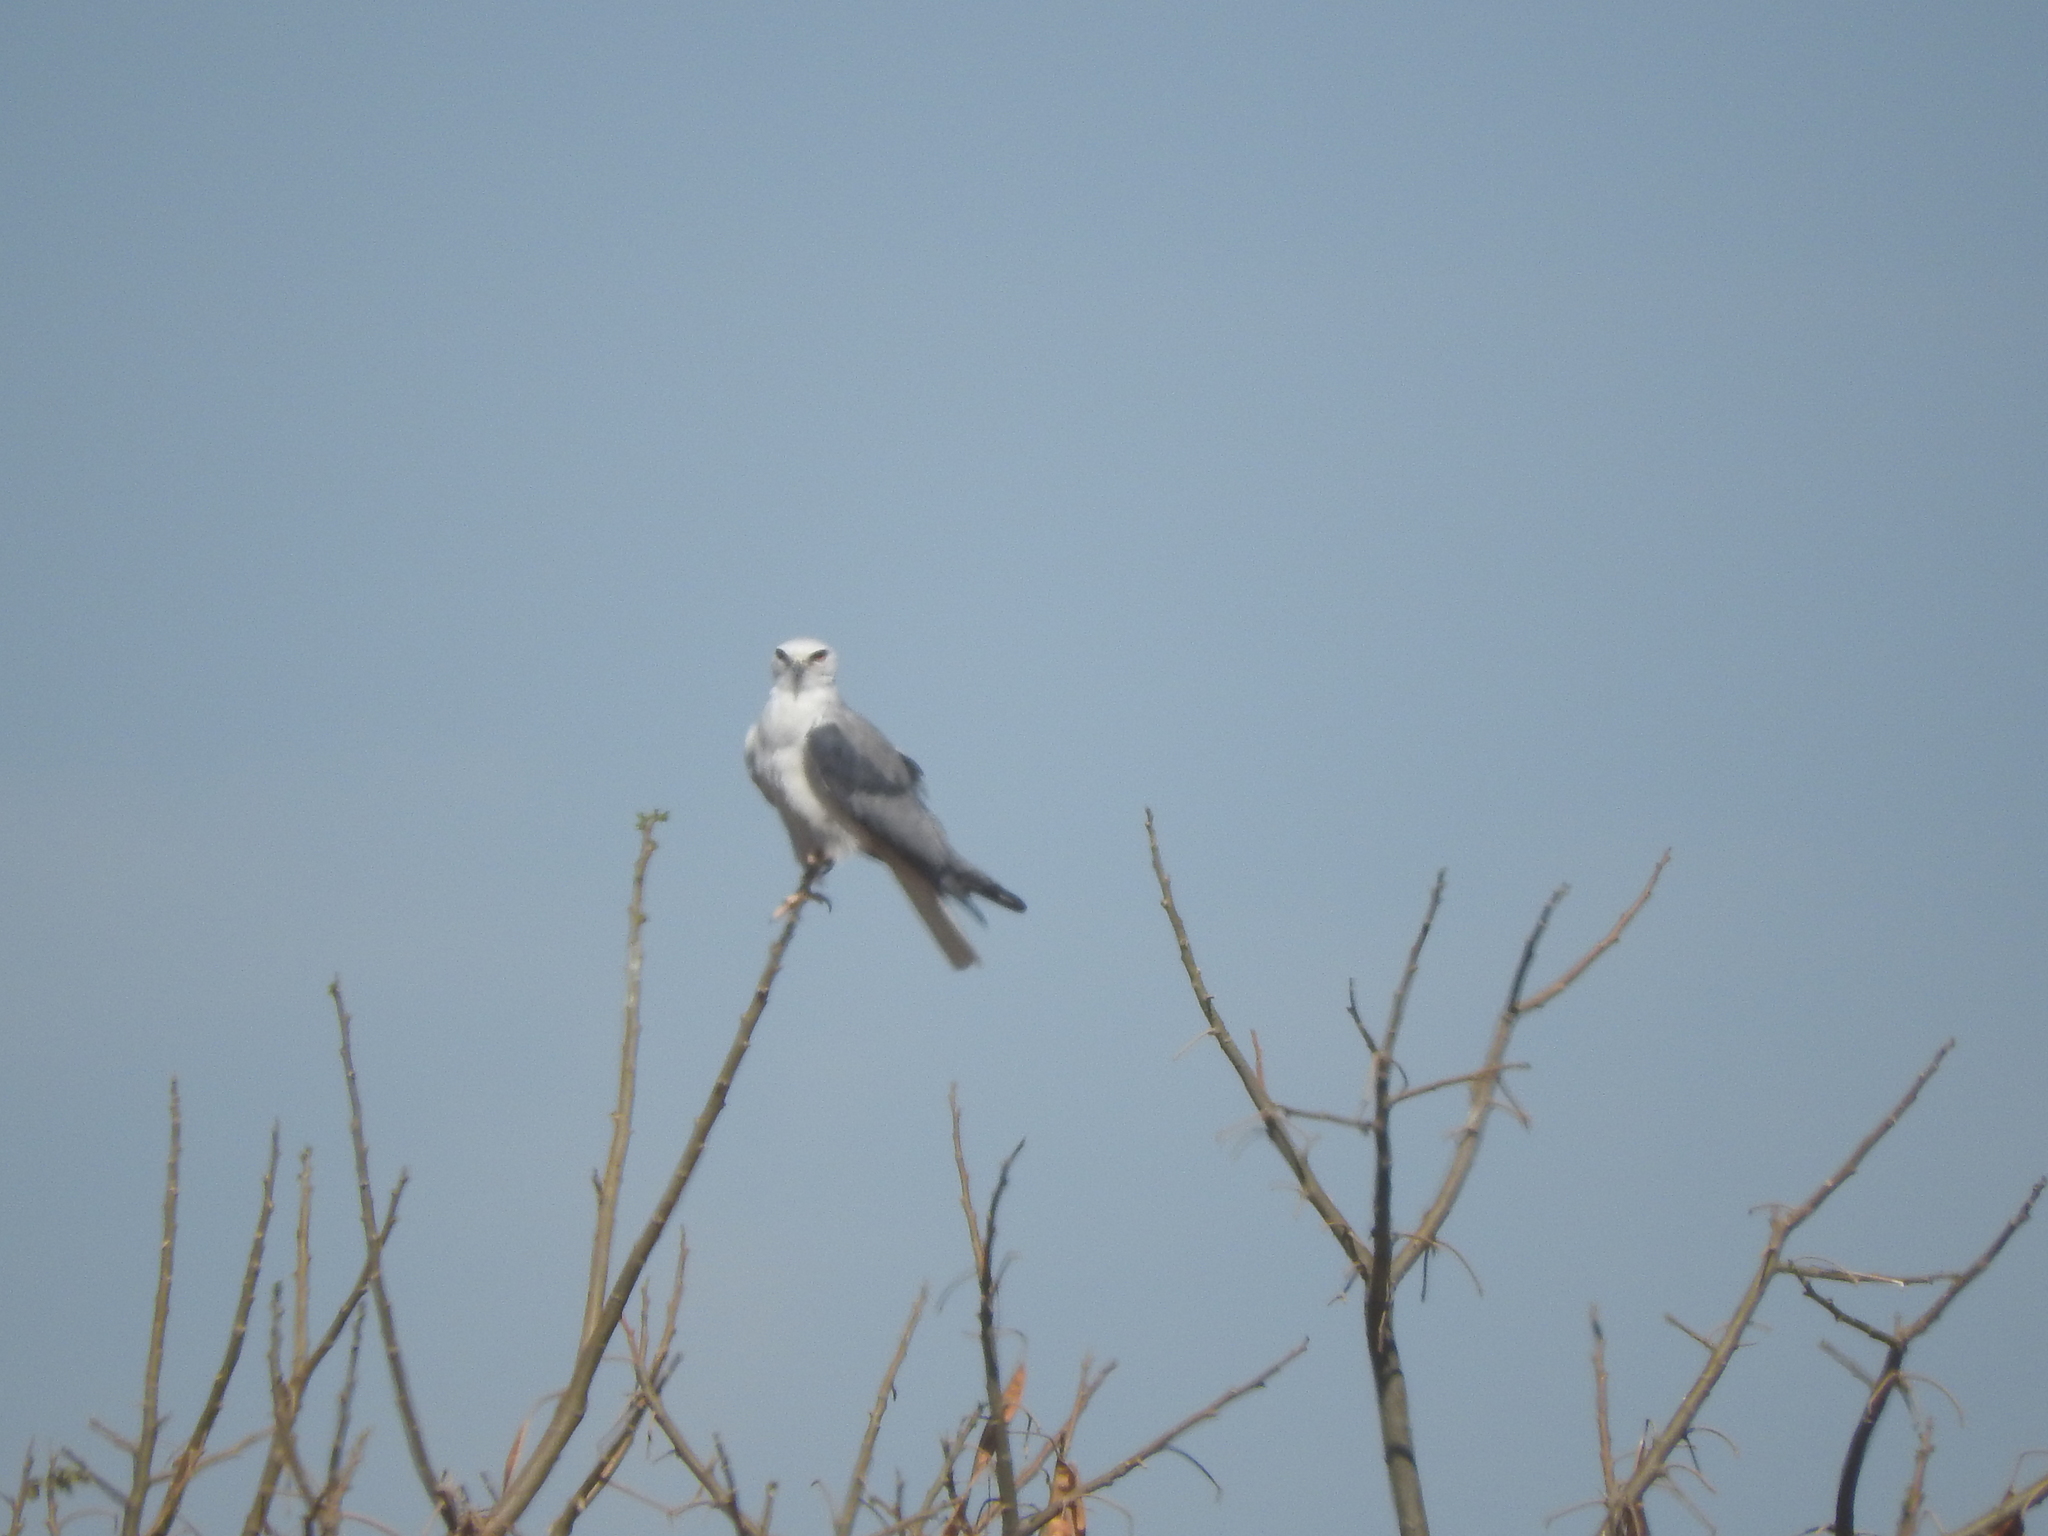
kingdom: Animalia
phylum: Chordata
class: Aves
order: Accipitriformes
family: Accipitridae
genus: Elanus
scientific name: Elanus leucurus
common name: White-tailed kite
